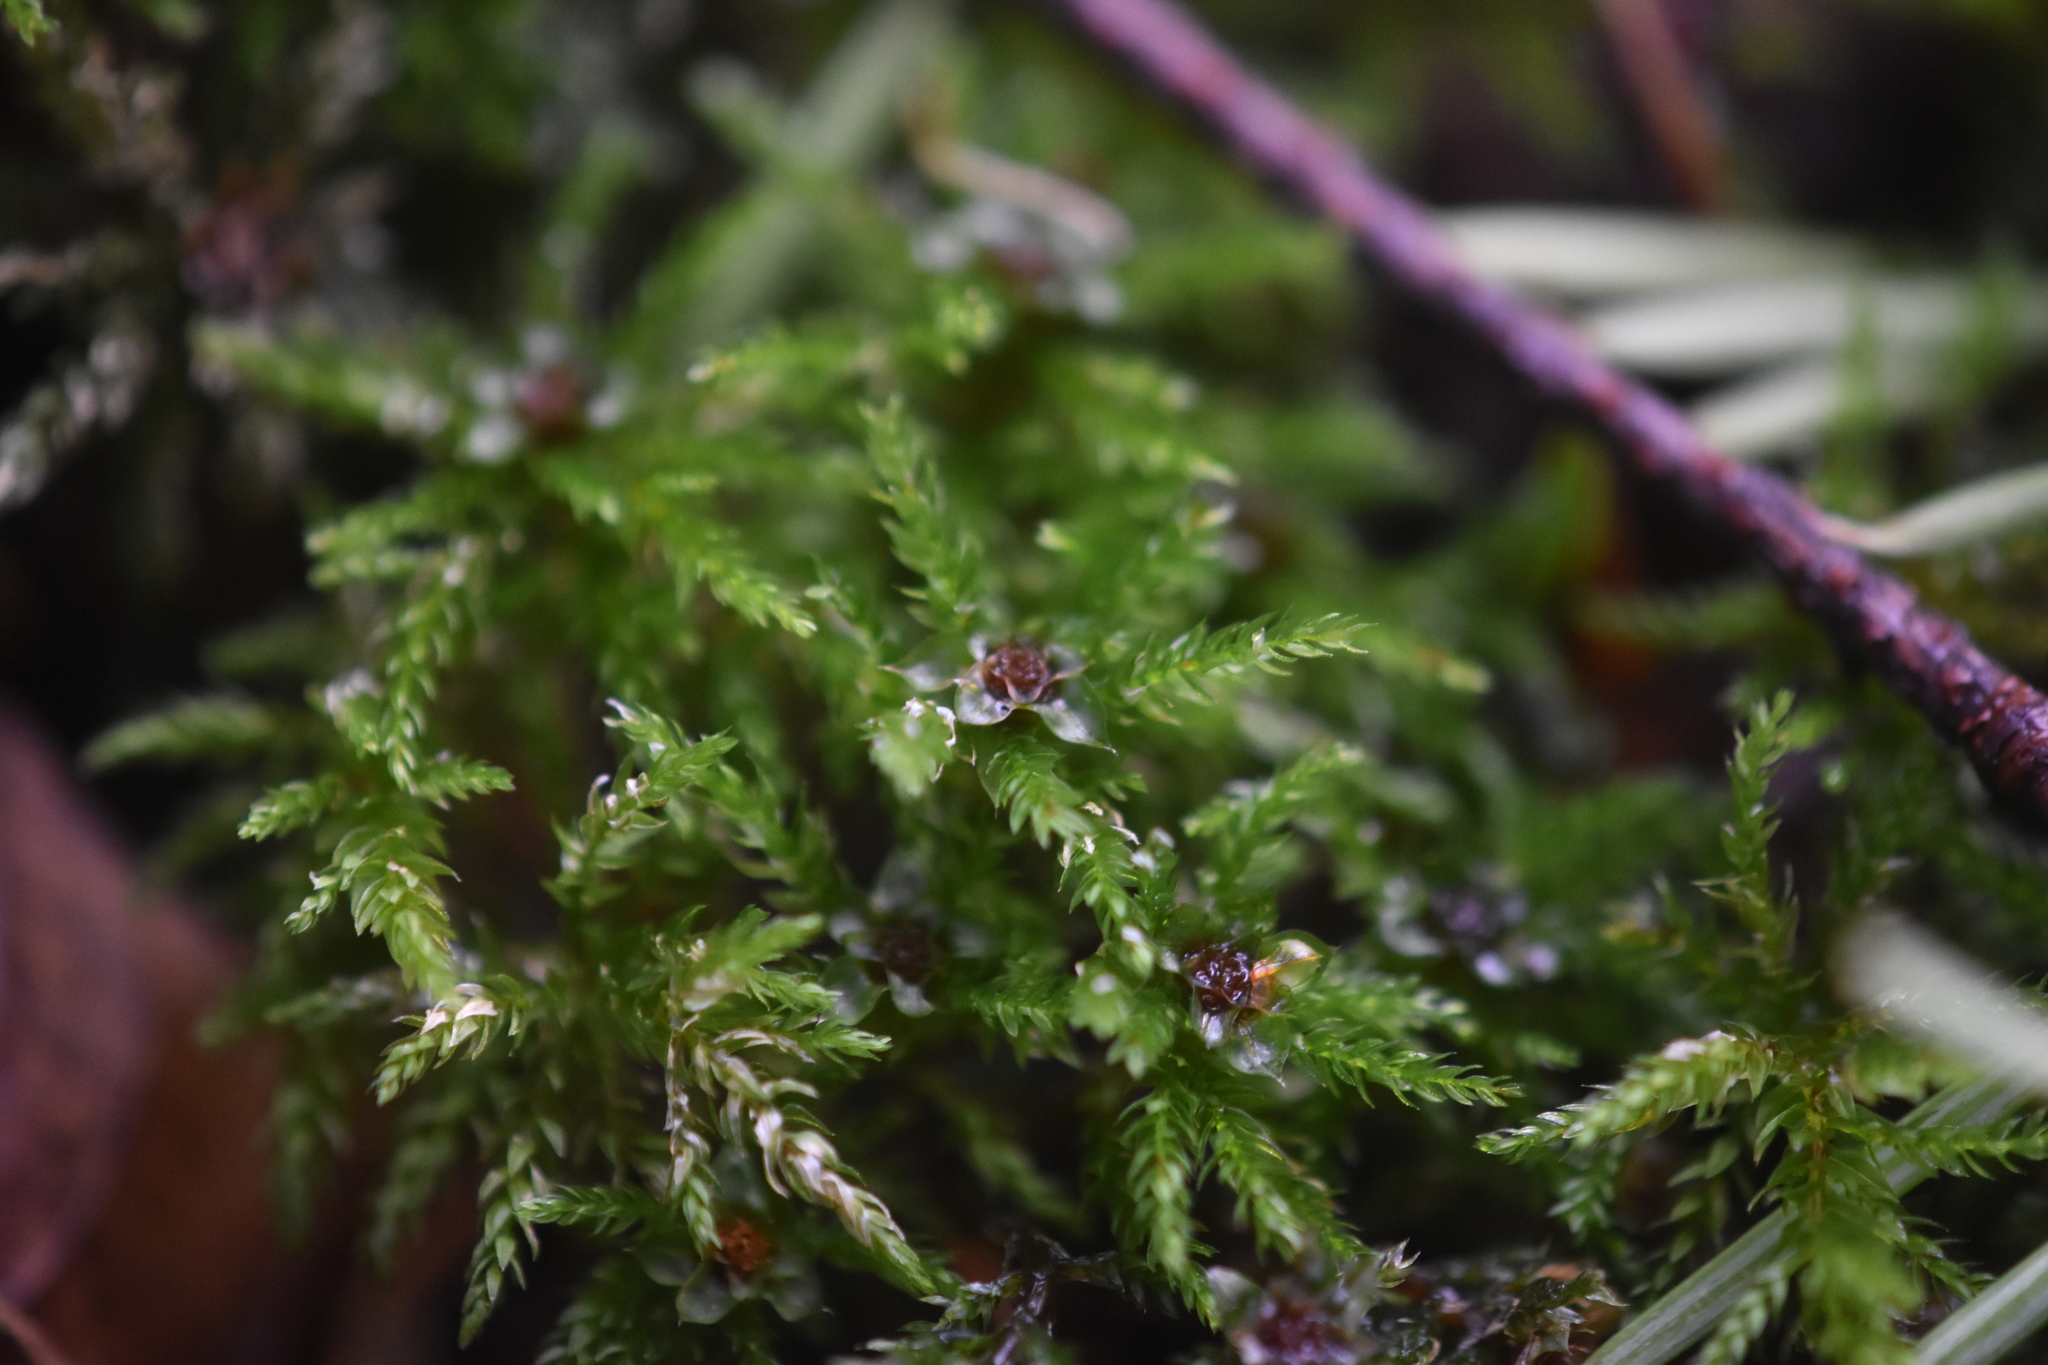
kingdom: Plantae
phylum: Bryophyta
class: Bryopsida
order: Bryales
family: Mniaceae
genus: Leucolepis
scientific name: Leucolepis acanthoneura
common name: Leucolepis umbrella moss
